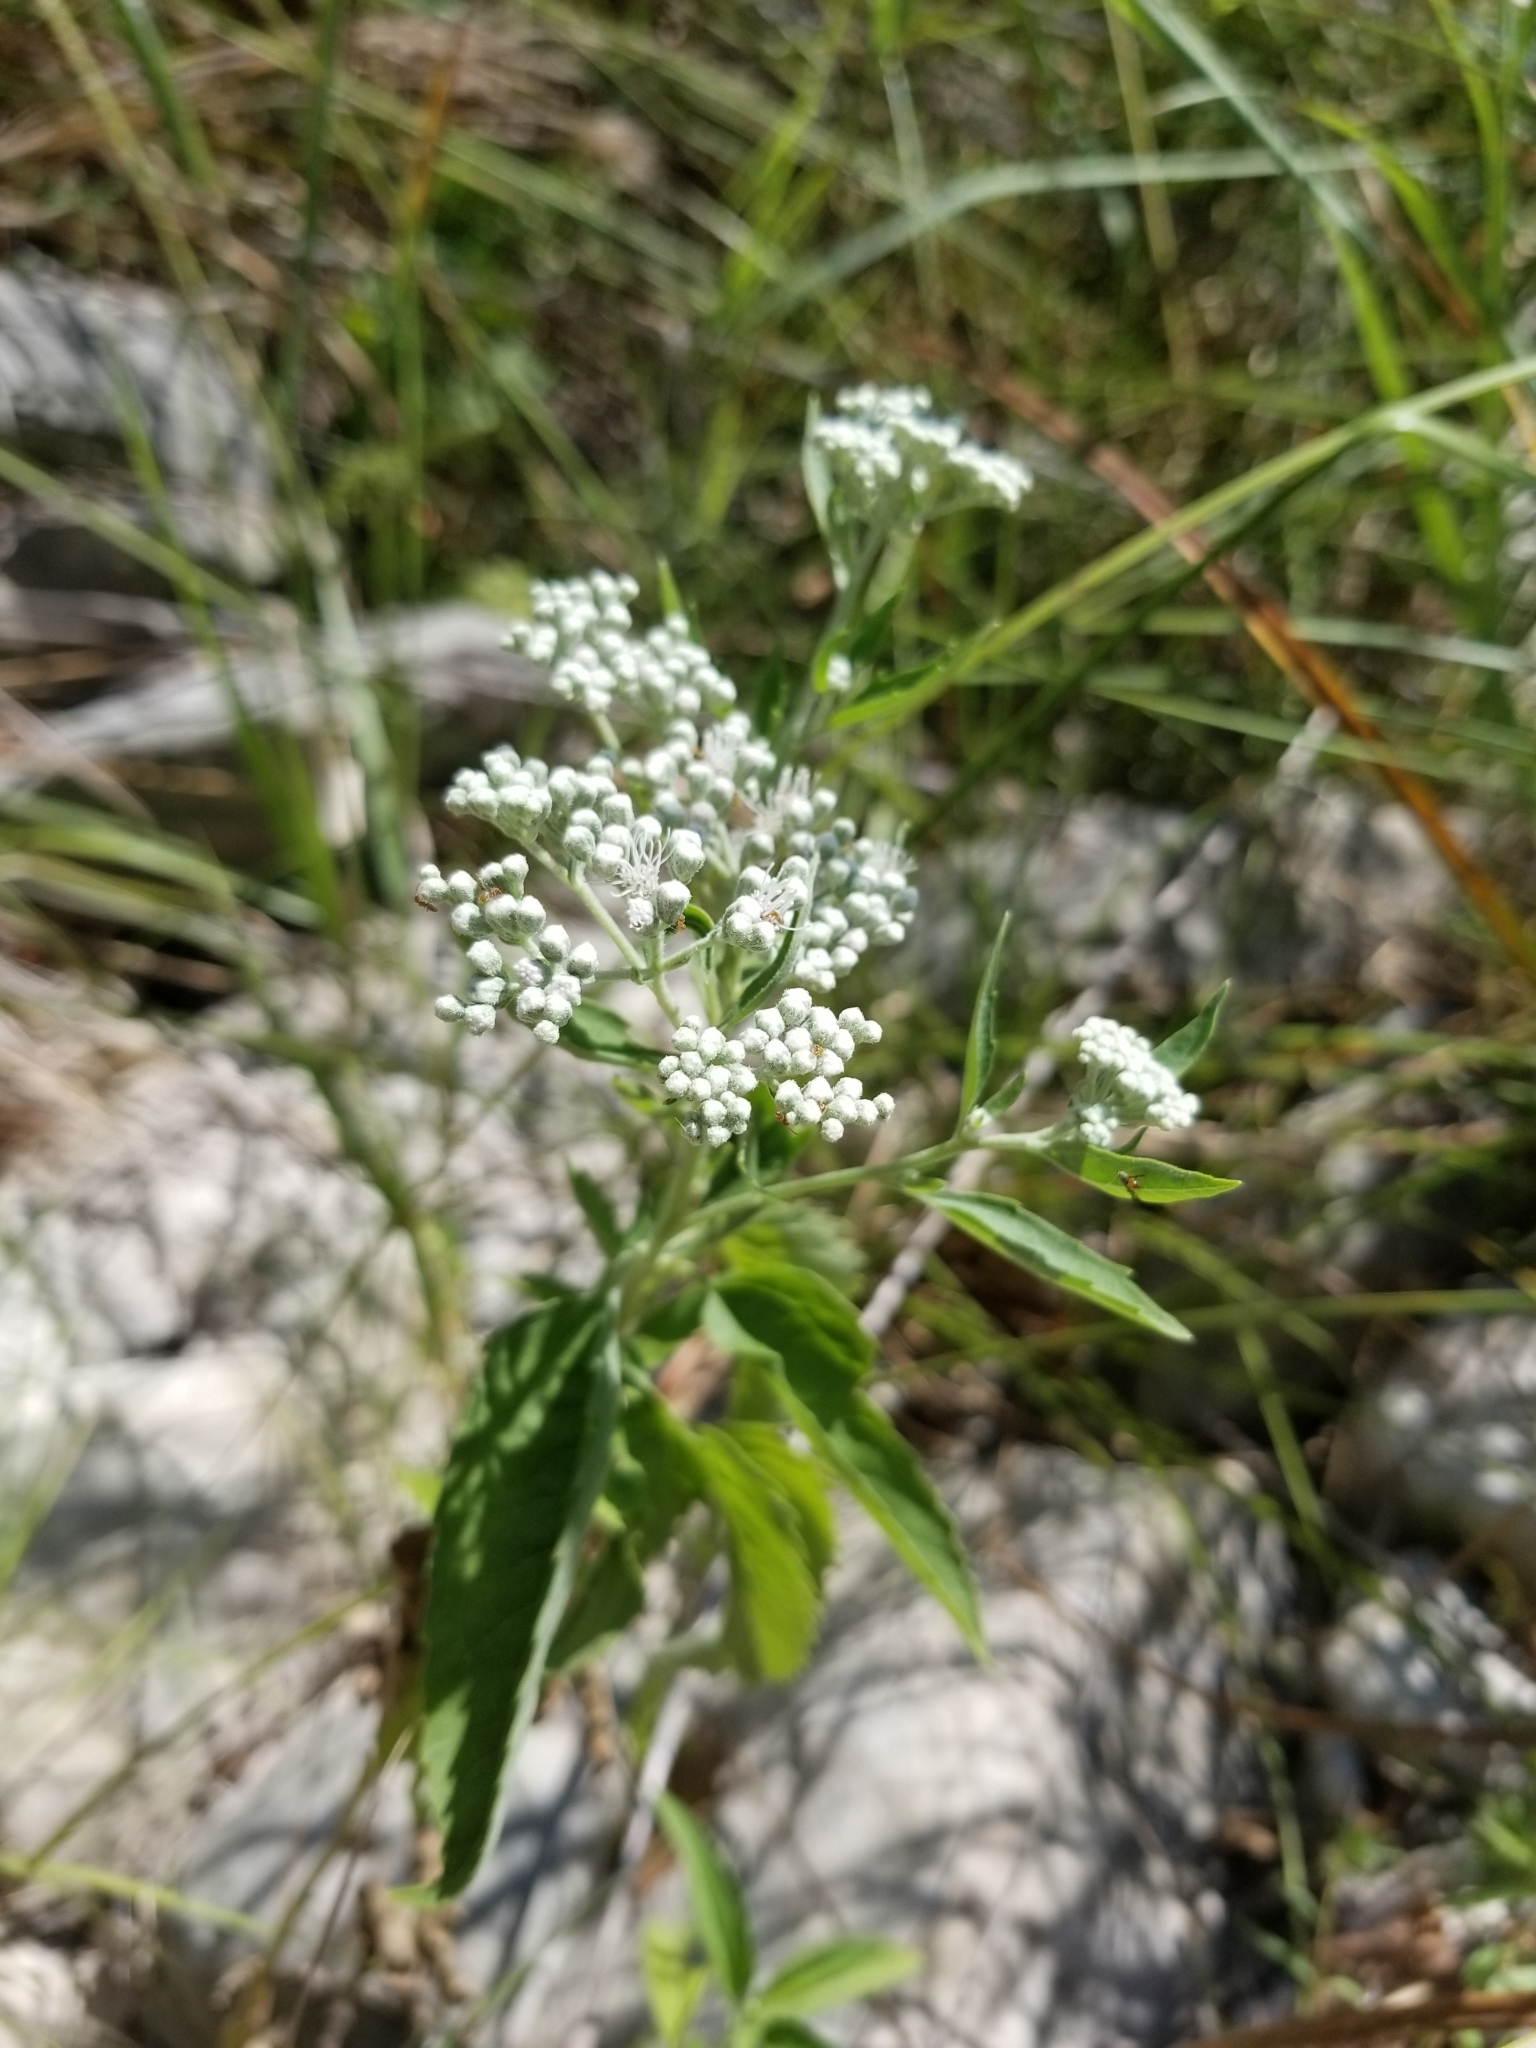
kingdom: Plantae
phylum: Tracheophyta
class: Magnoliopsida
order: Asterales
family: Asteraceae
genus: Eupatorium
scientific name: Eupatorium serotinum
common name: Late boneset
